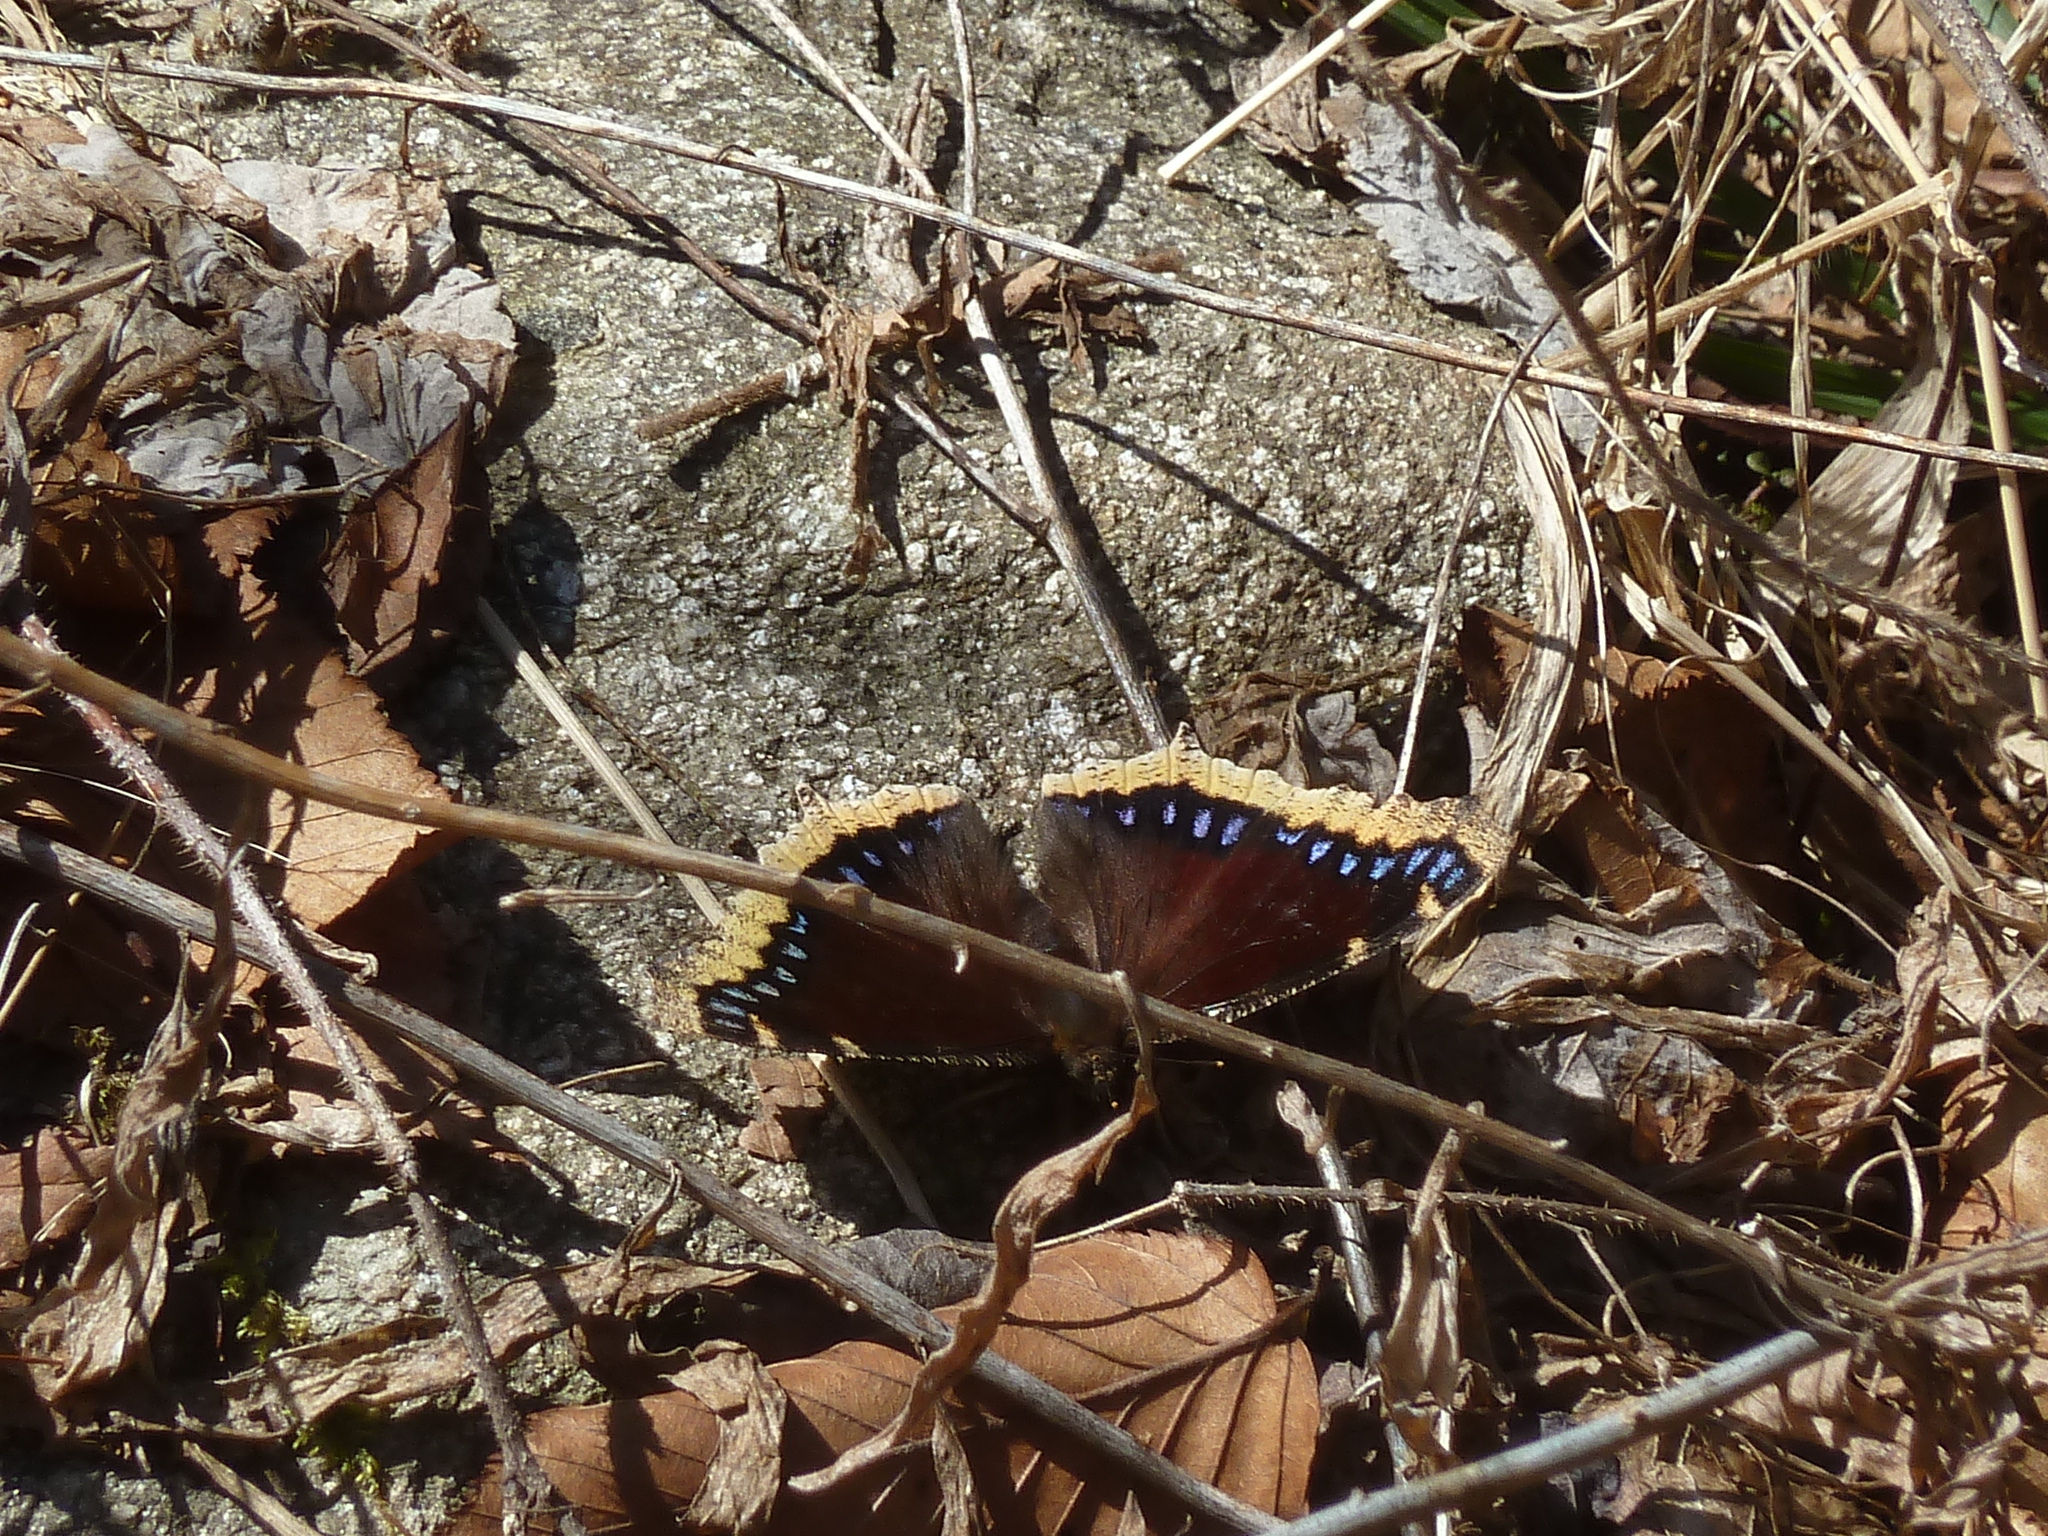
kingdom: Animalia
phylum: Arthropoda
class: Insecta
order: Lepidoptera
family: Nymphalidae
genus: Nymphalis
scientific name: Nymphalis antiopa
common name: Camberwell beauty
